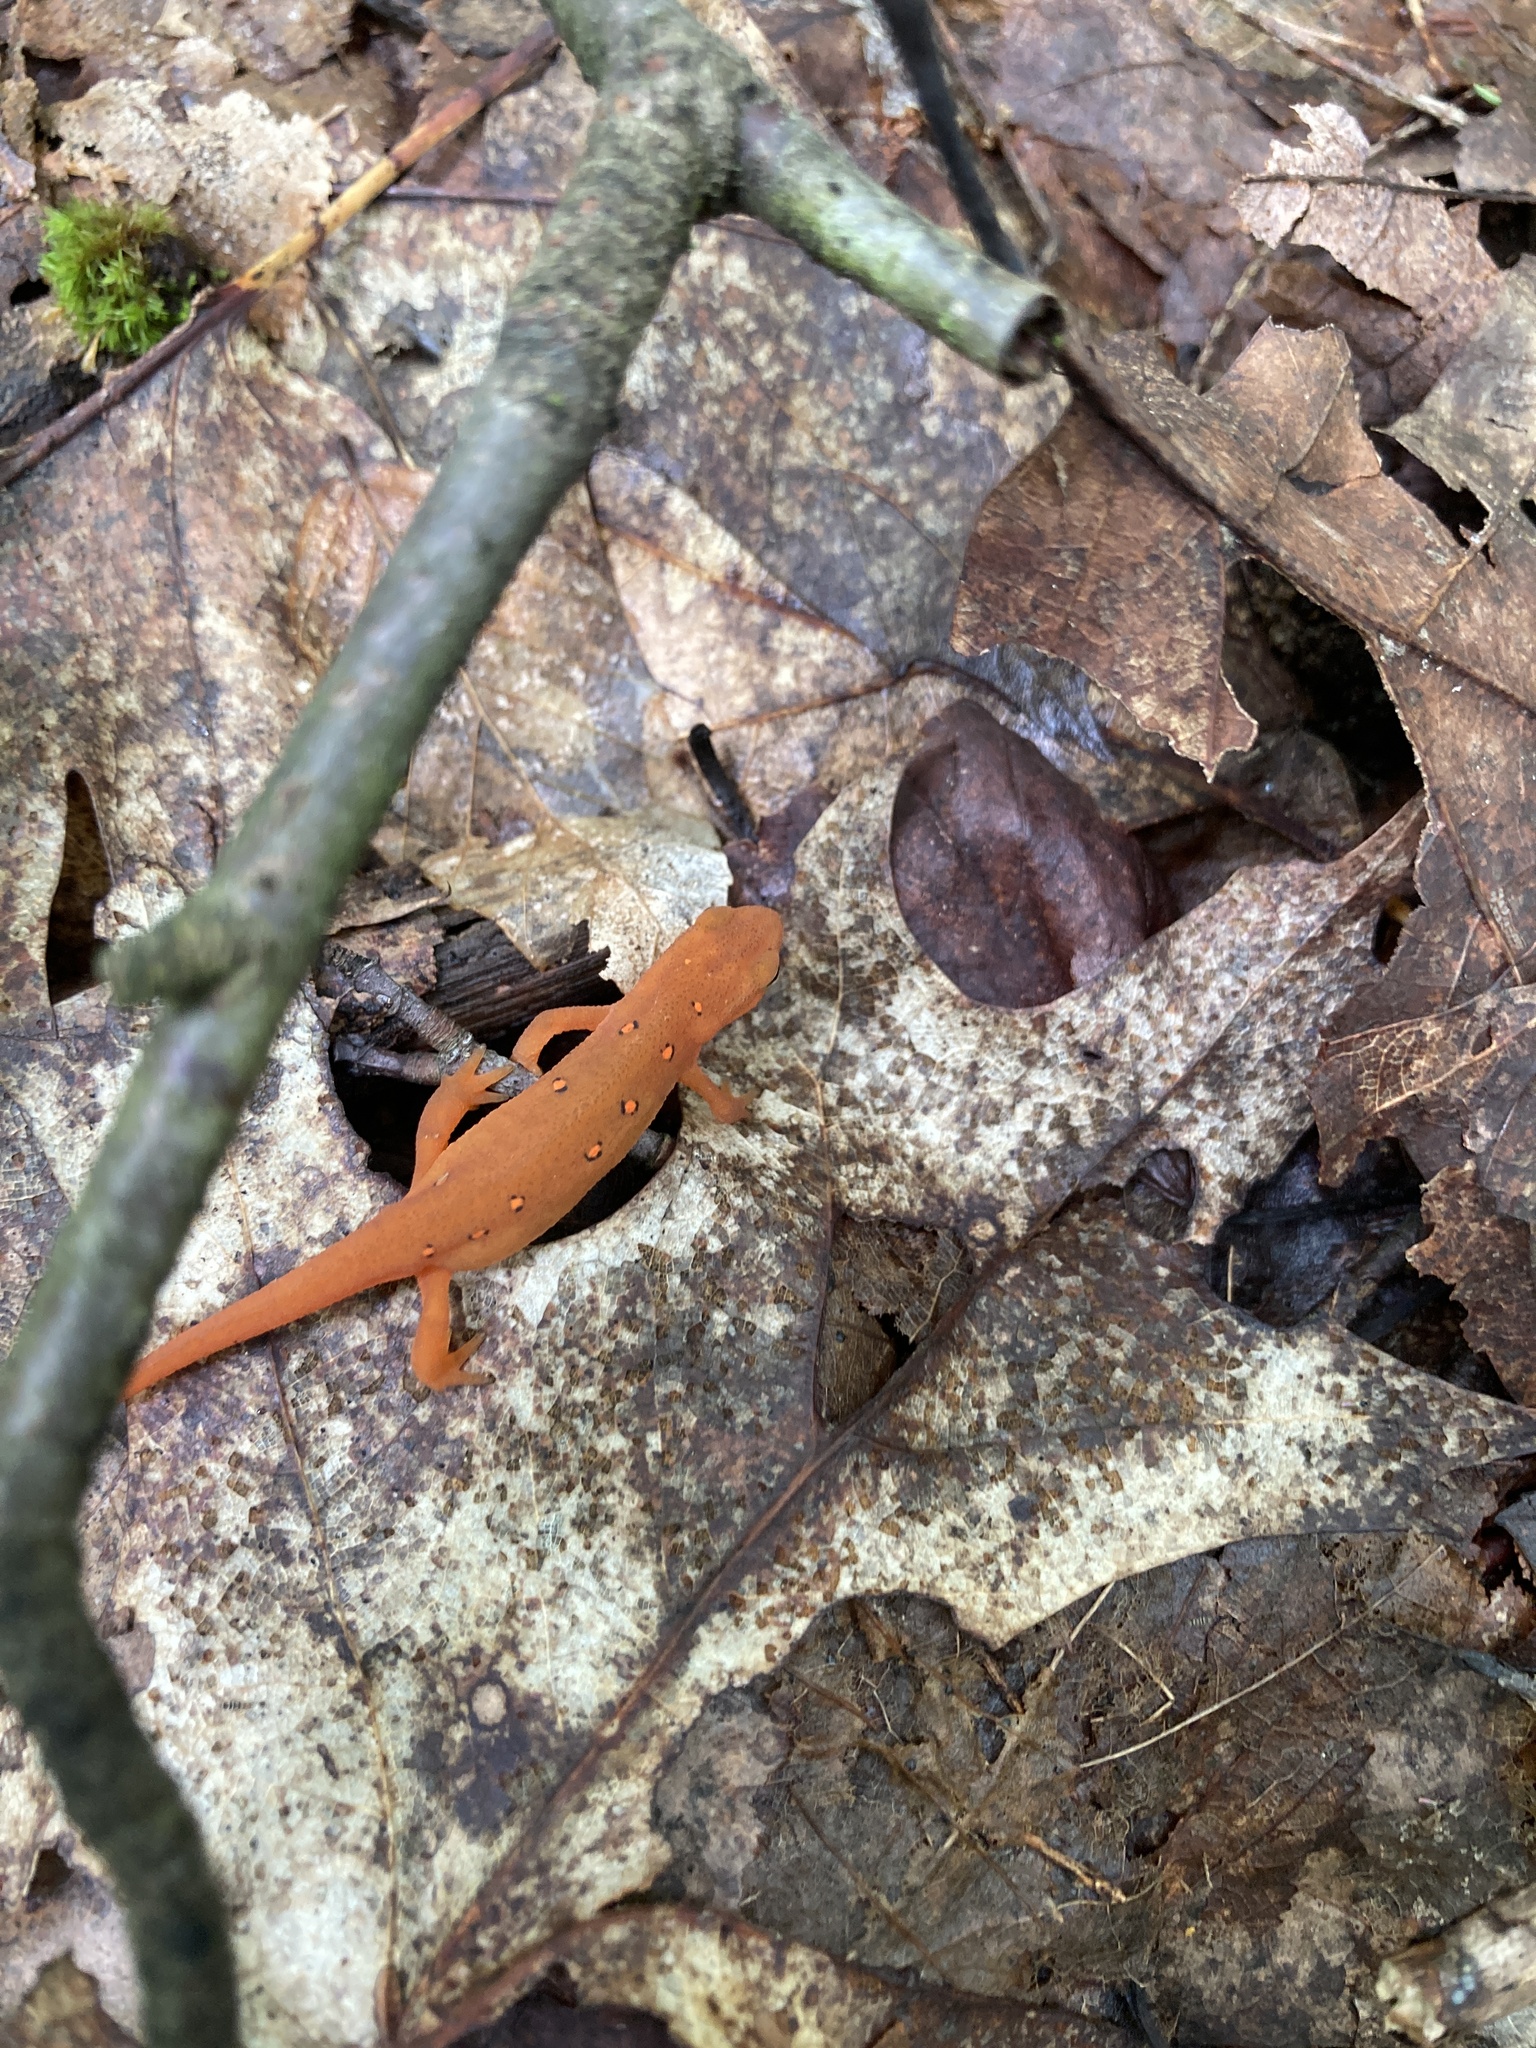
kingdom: Animalia
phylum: Chordata
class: Amphibia
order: Caudata
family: Salamandridae
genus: Notophthalmus
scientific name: Notophthalmus viridescens
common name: Eastern newt
